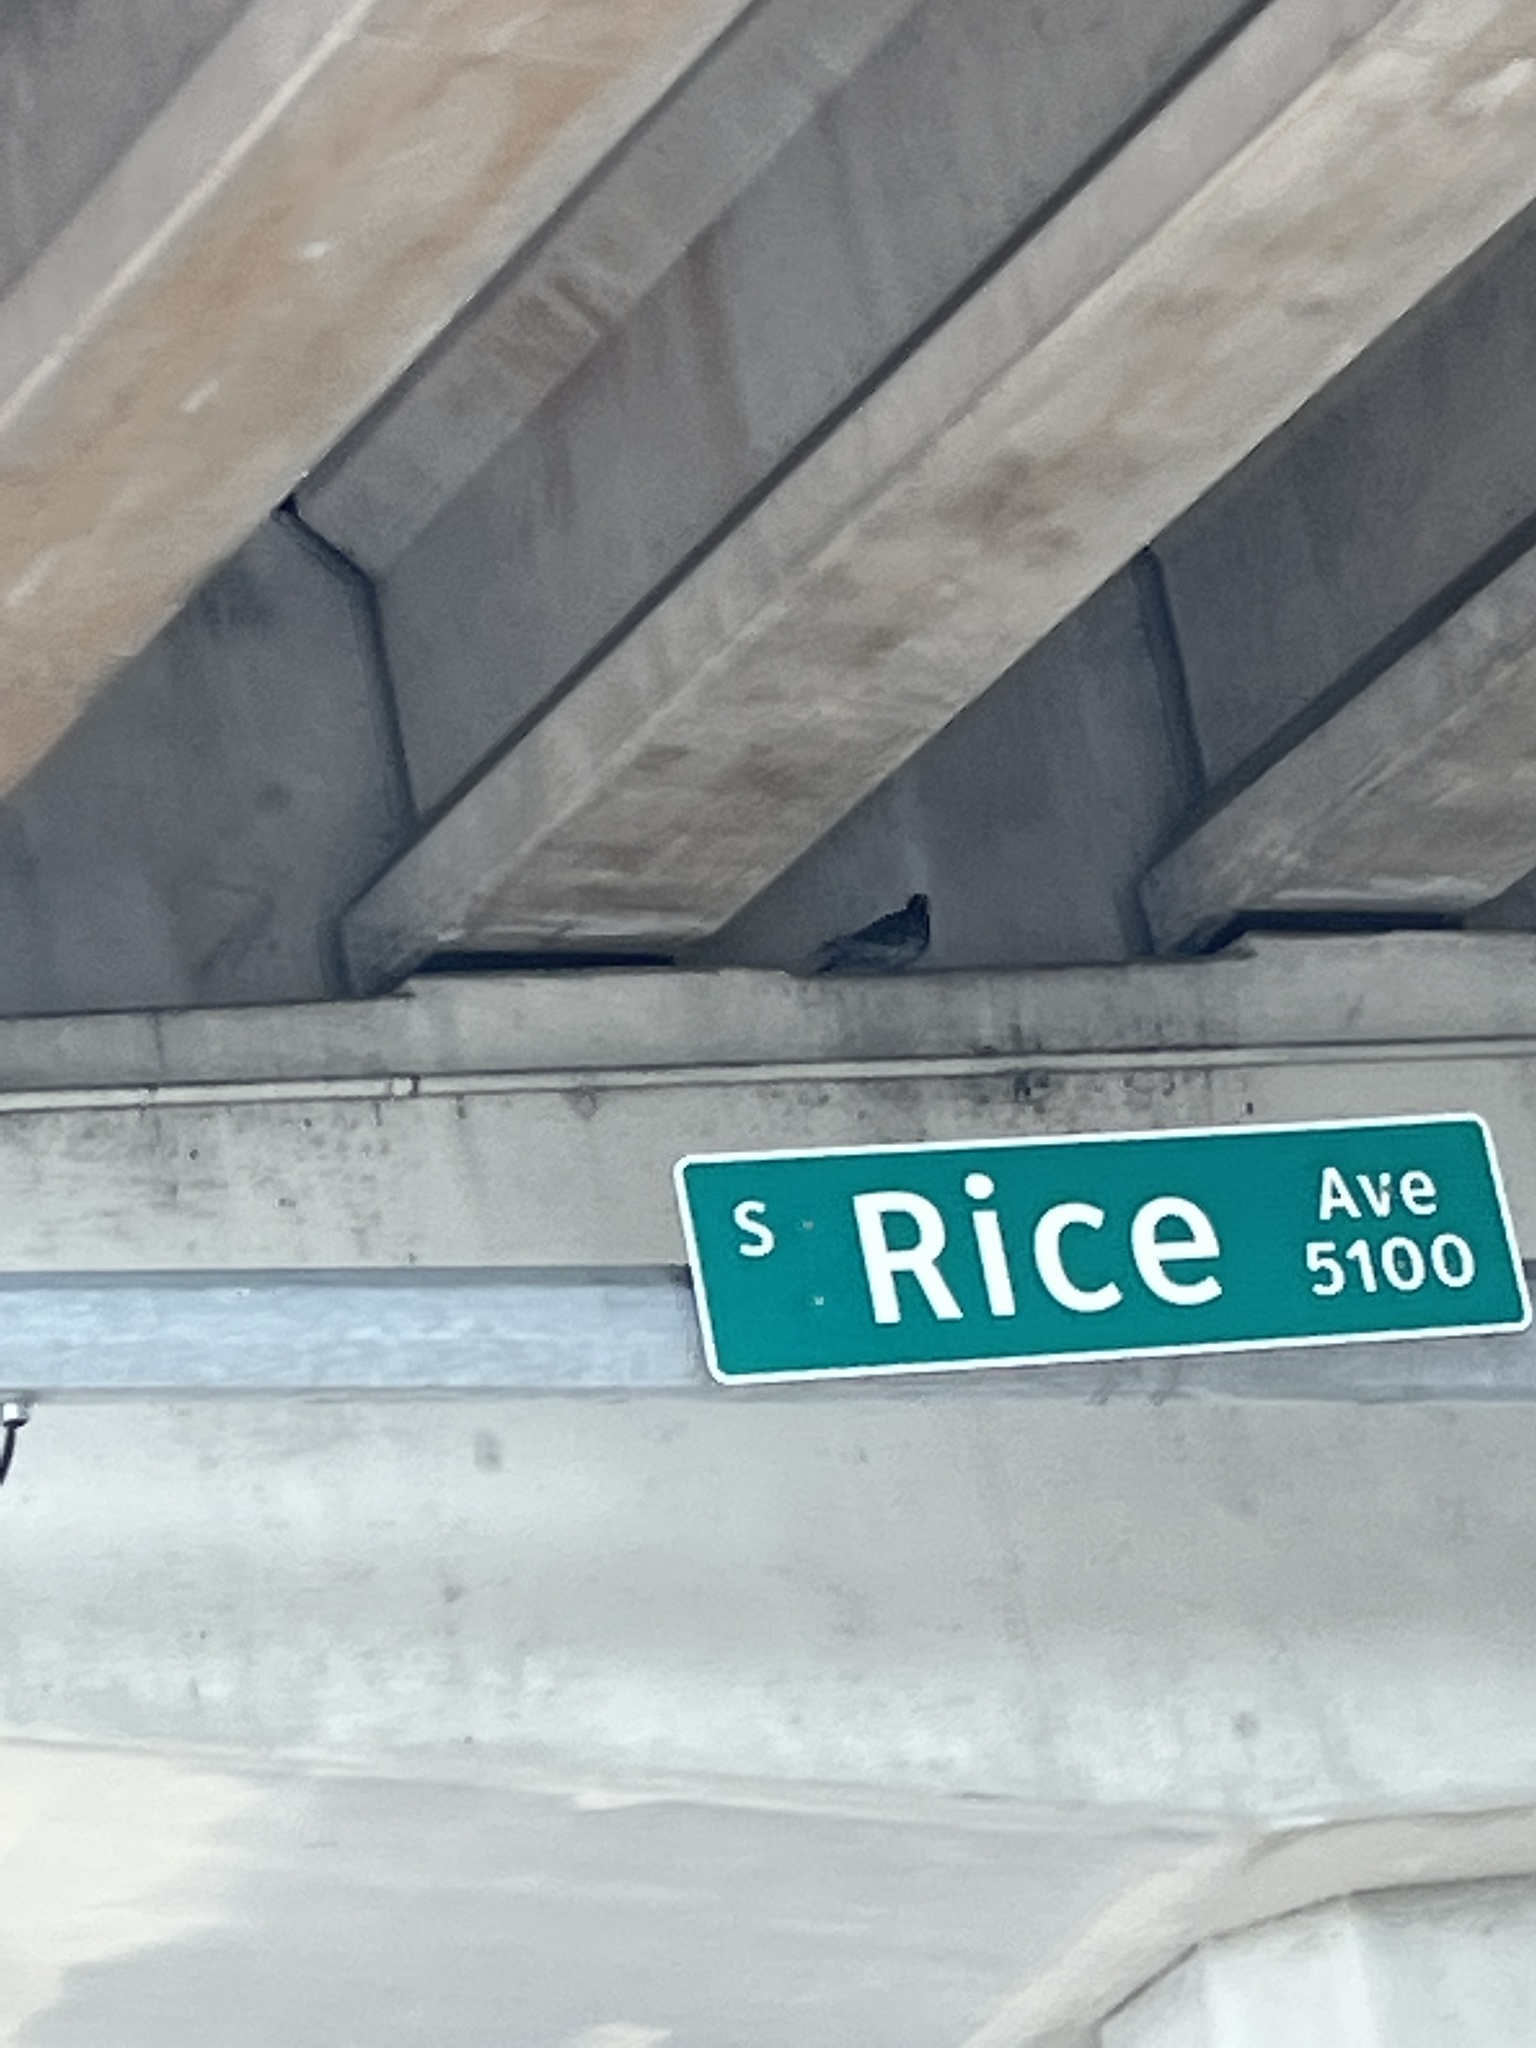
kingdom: Animalia
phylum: Chordata
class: Aves
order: Columbiformes
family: Columbidae
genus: Columba
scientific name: Columba livia
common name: Rock pigeon
